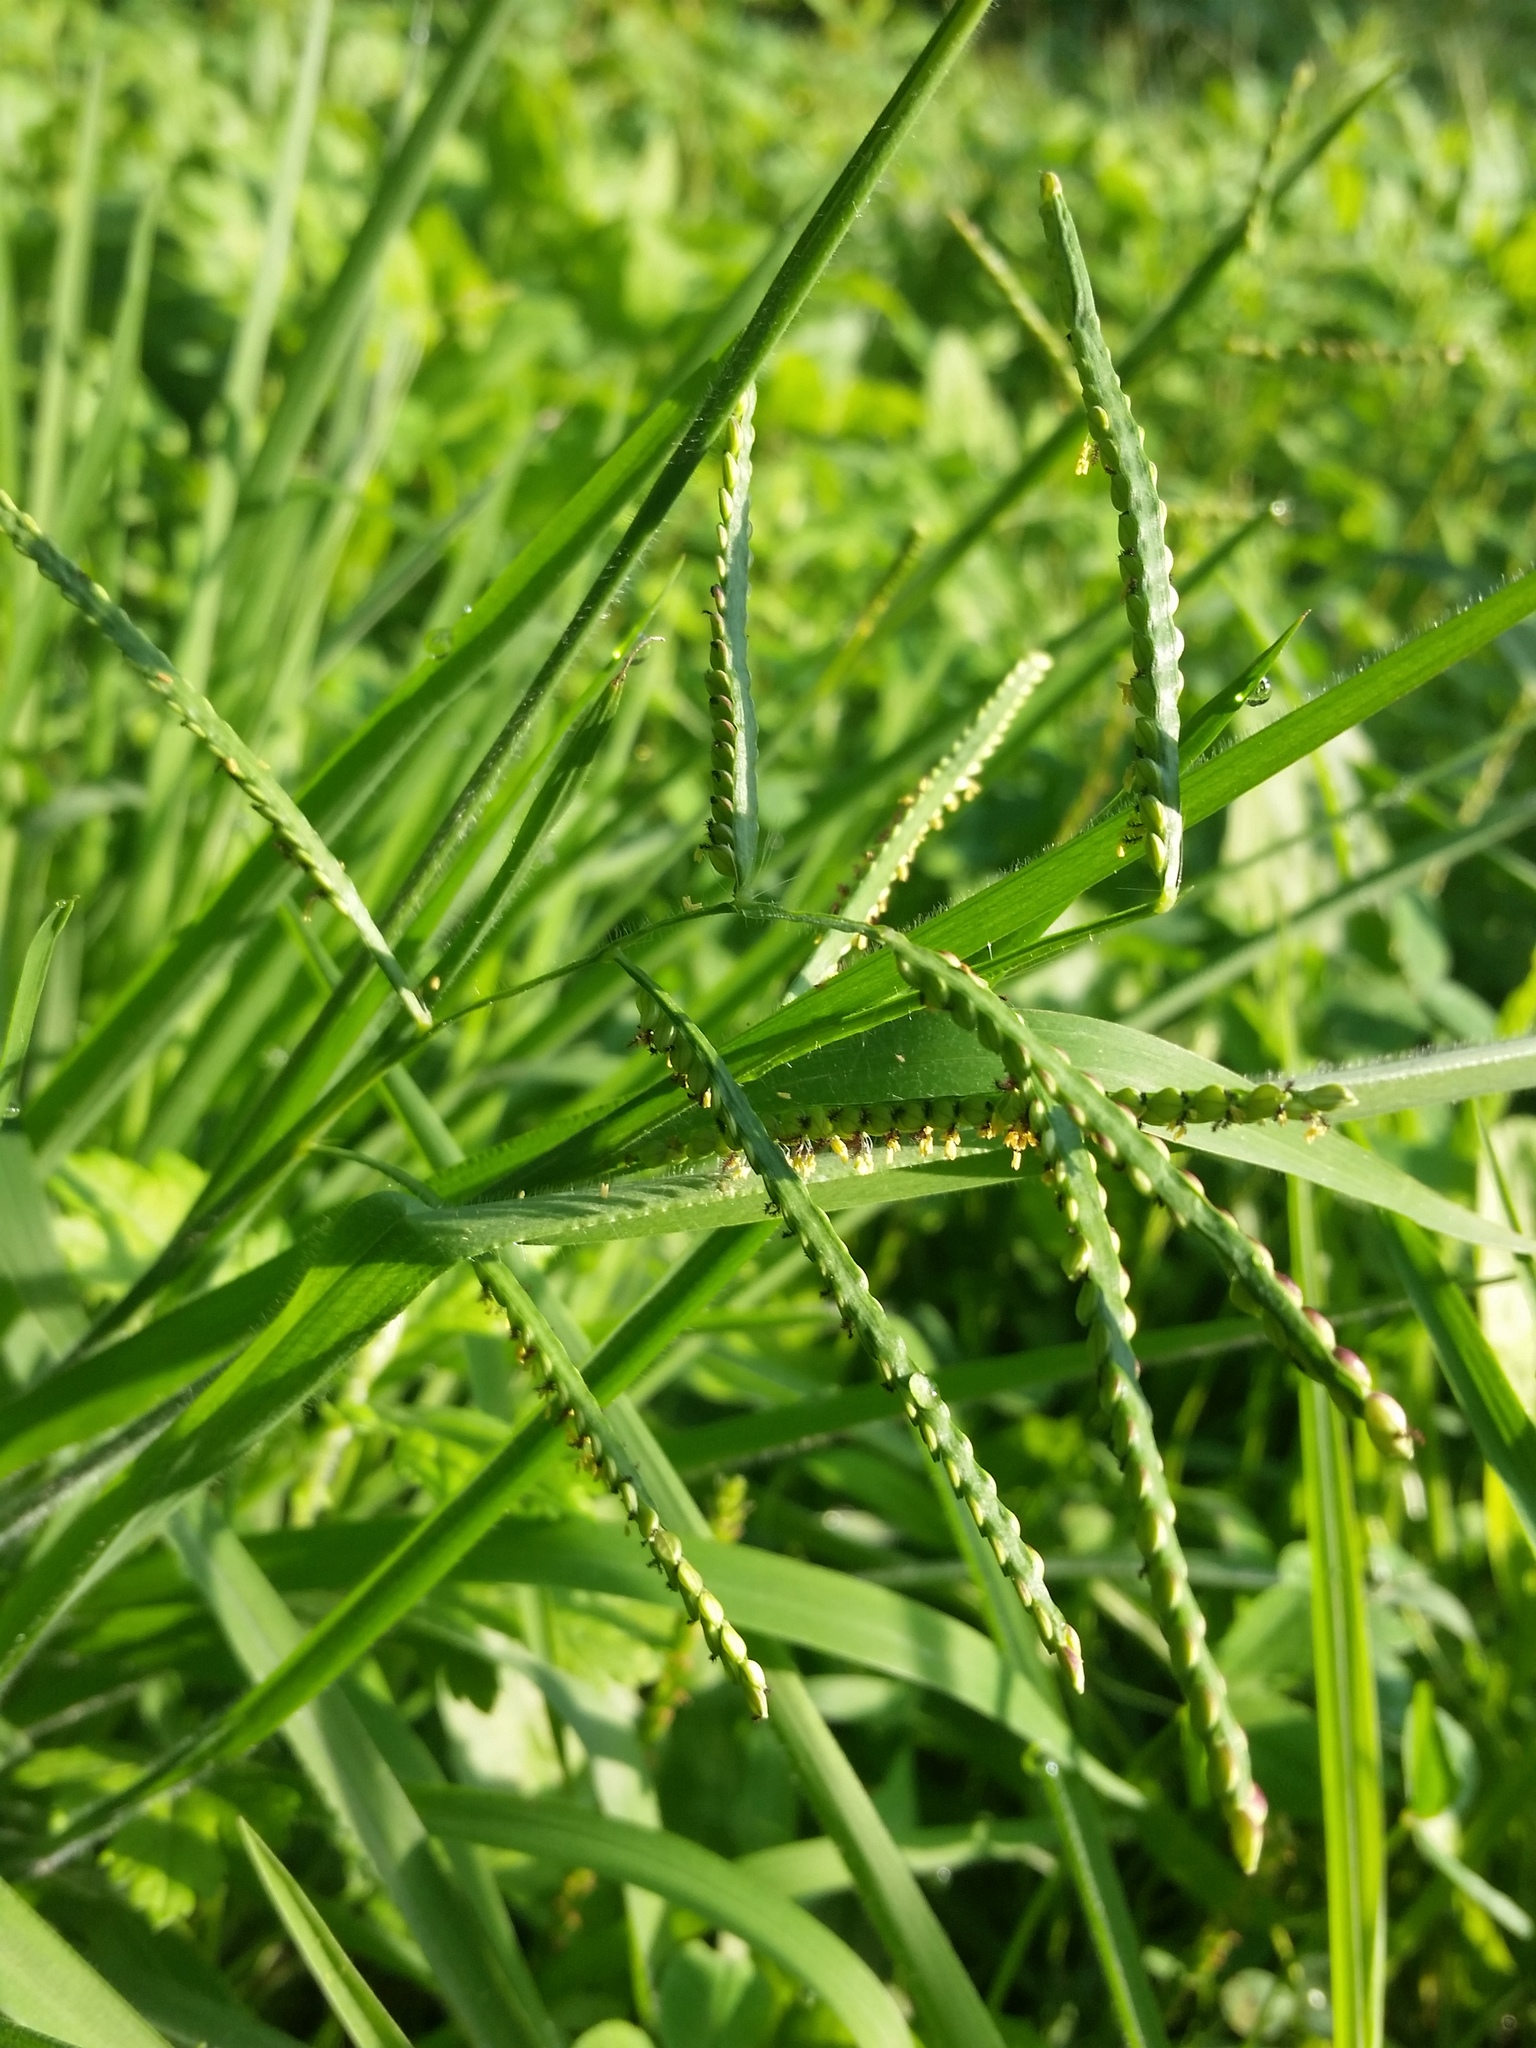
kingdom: Plantae
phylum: Tracheophyta
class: Liliopsida
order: Poales
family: Poaceae
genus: Paspalum
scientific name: Paspalum laeve
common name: Field paspalum
